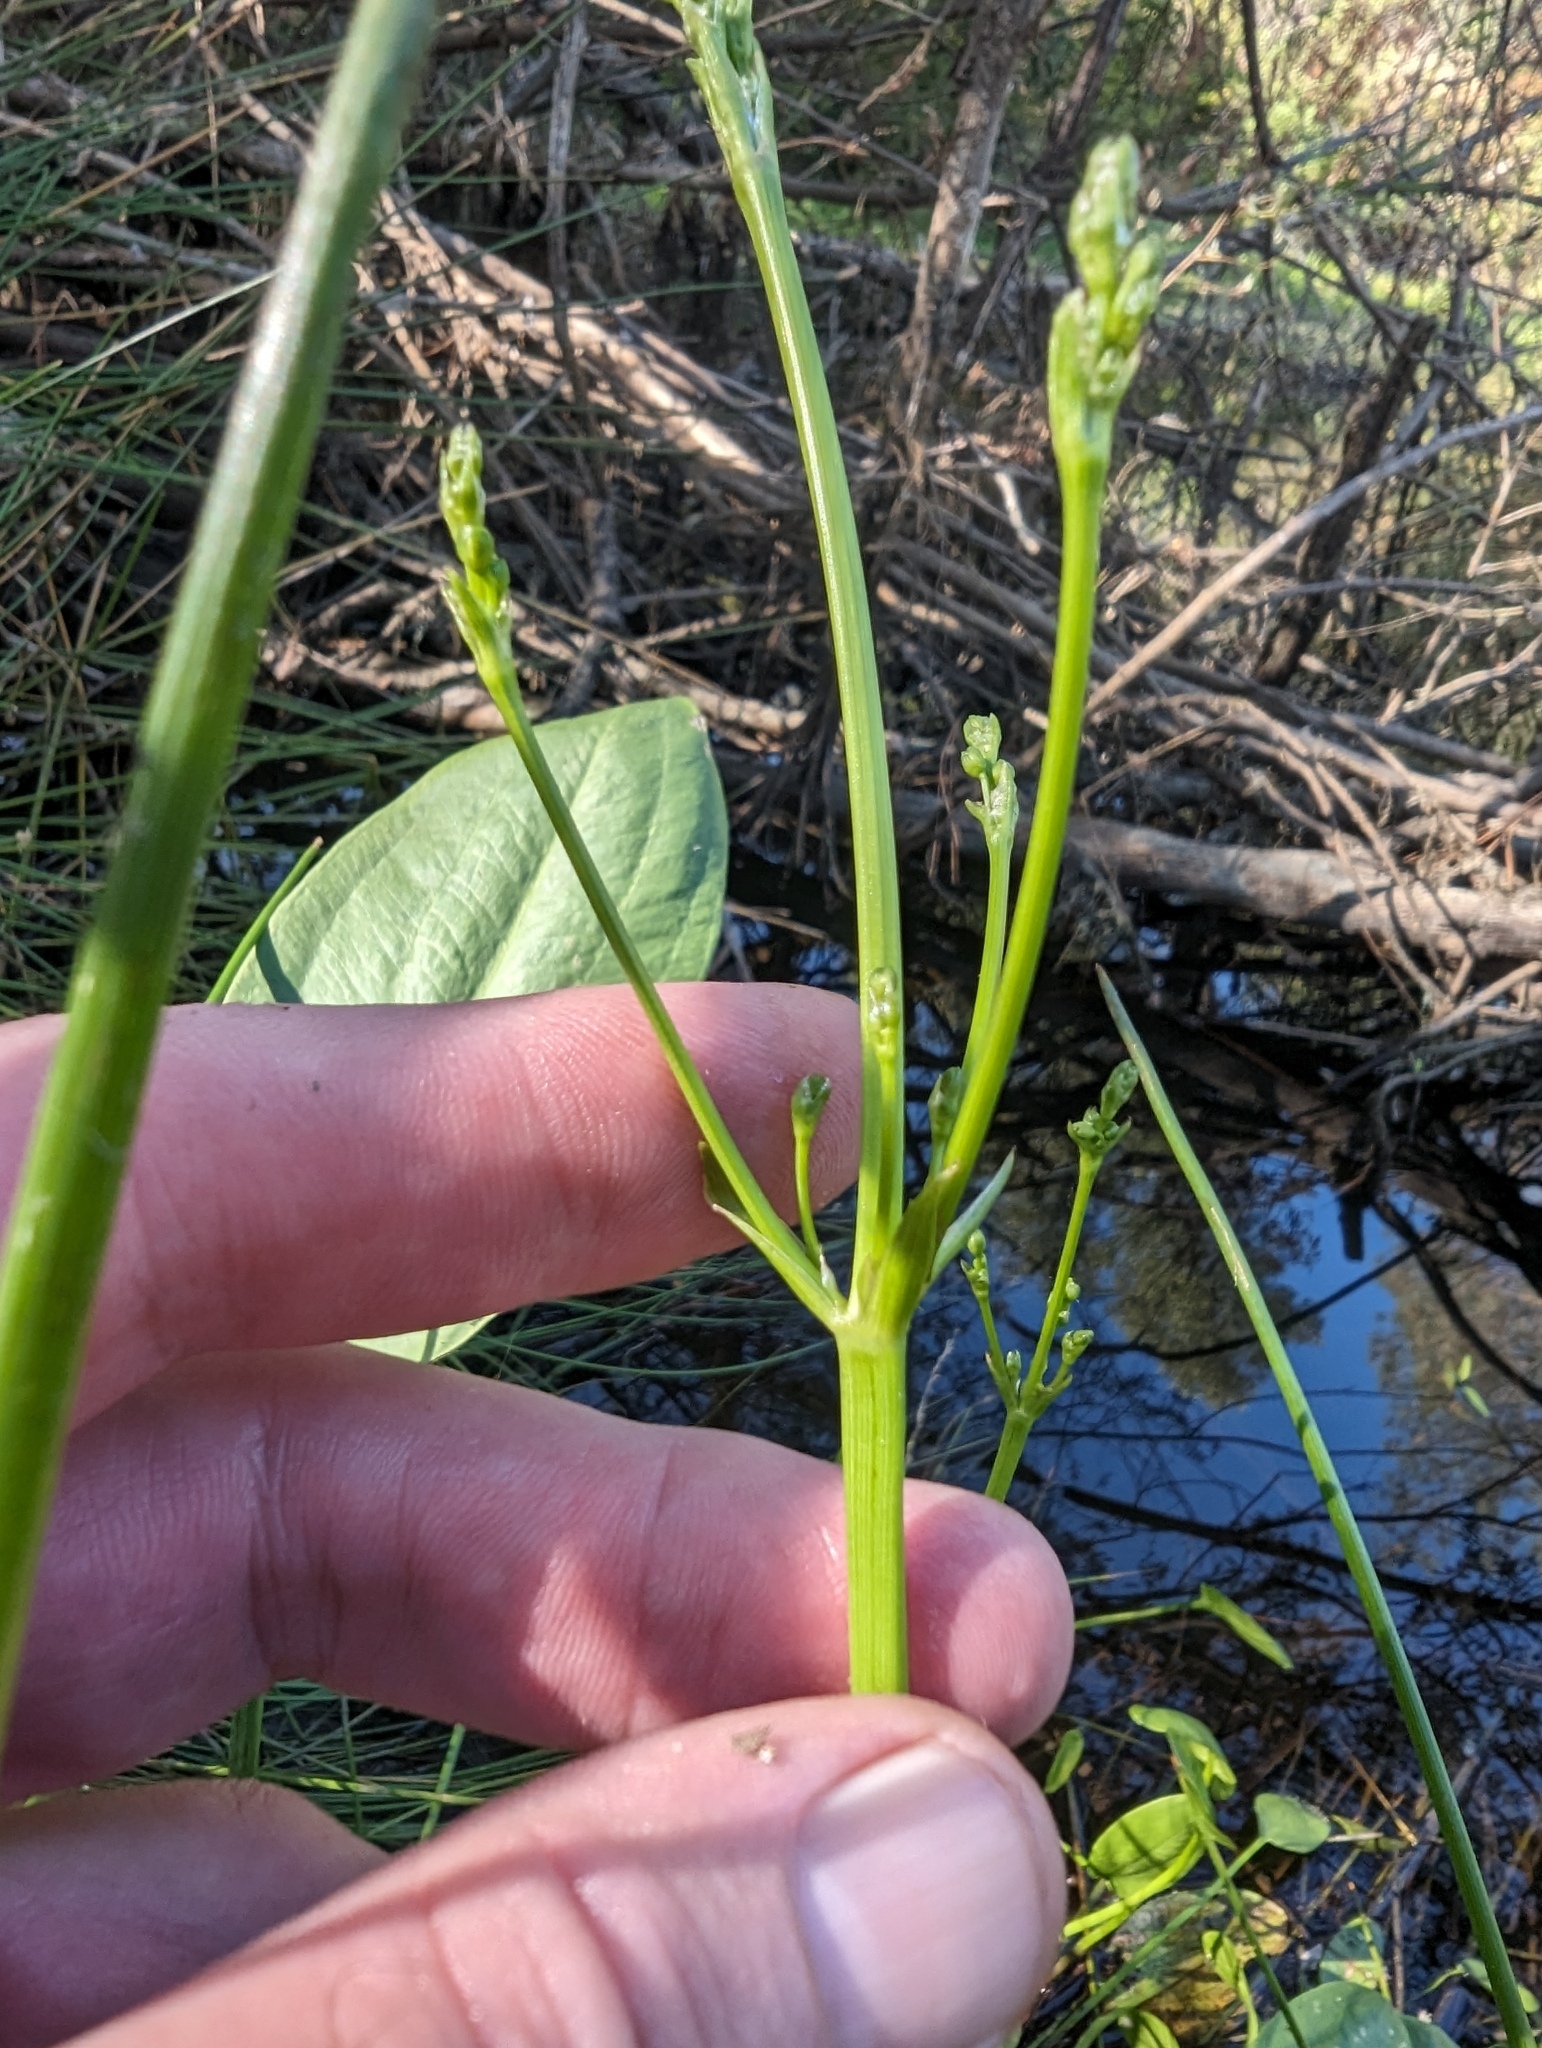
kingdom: Plantae
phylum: Tracheophyta
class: Liliopsida
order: Alismatales
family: Alismataceae
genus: Alisma
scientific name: Alisma triviale
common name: Northern water-plantain
